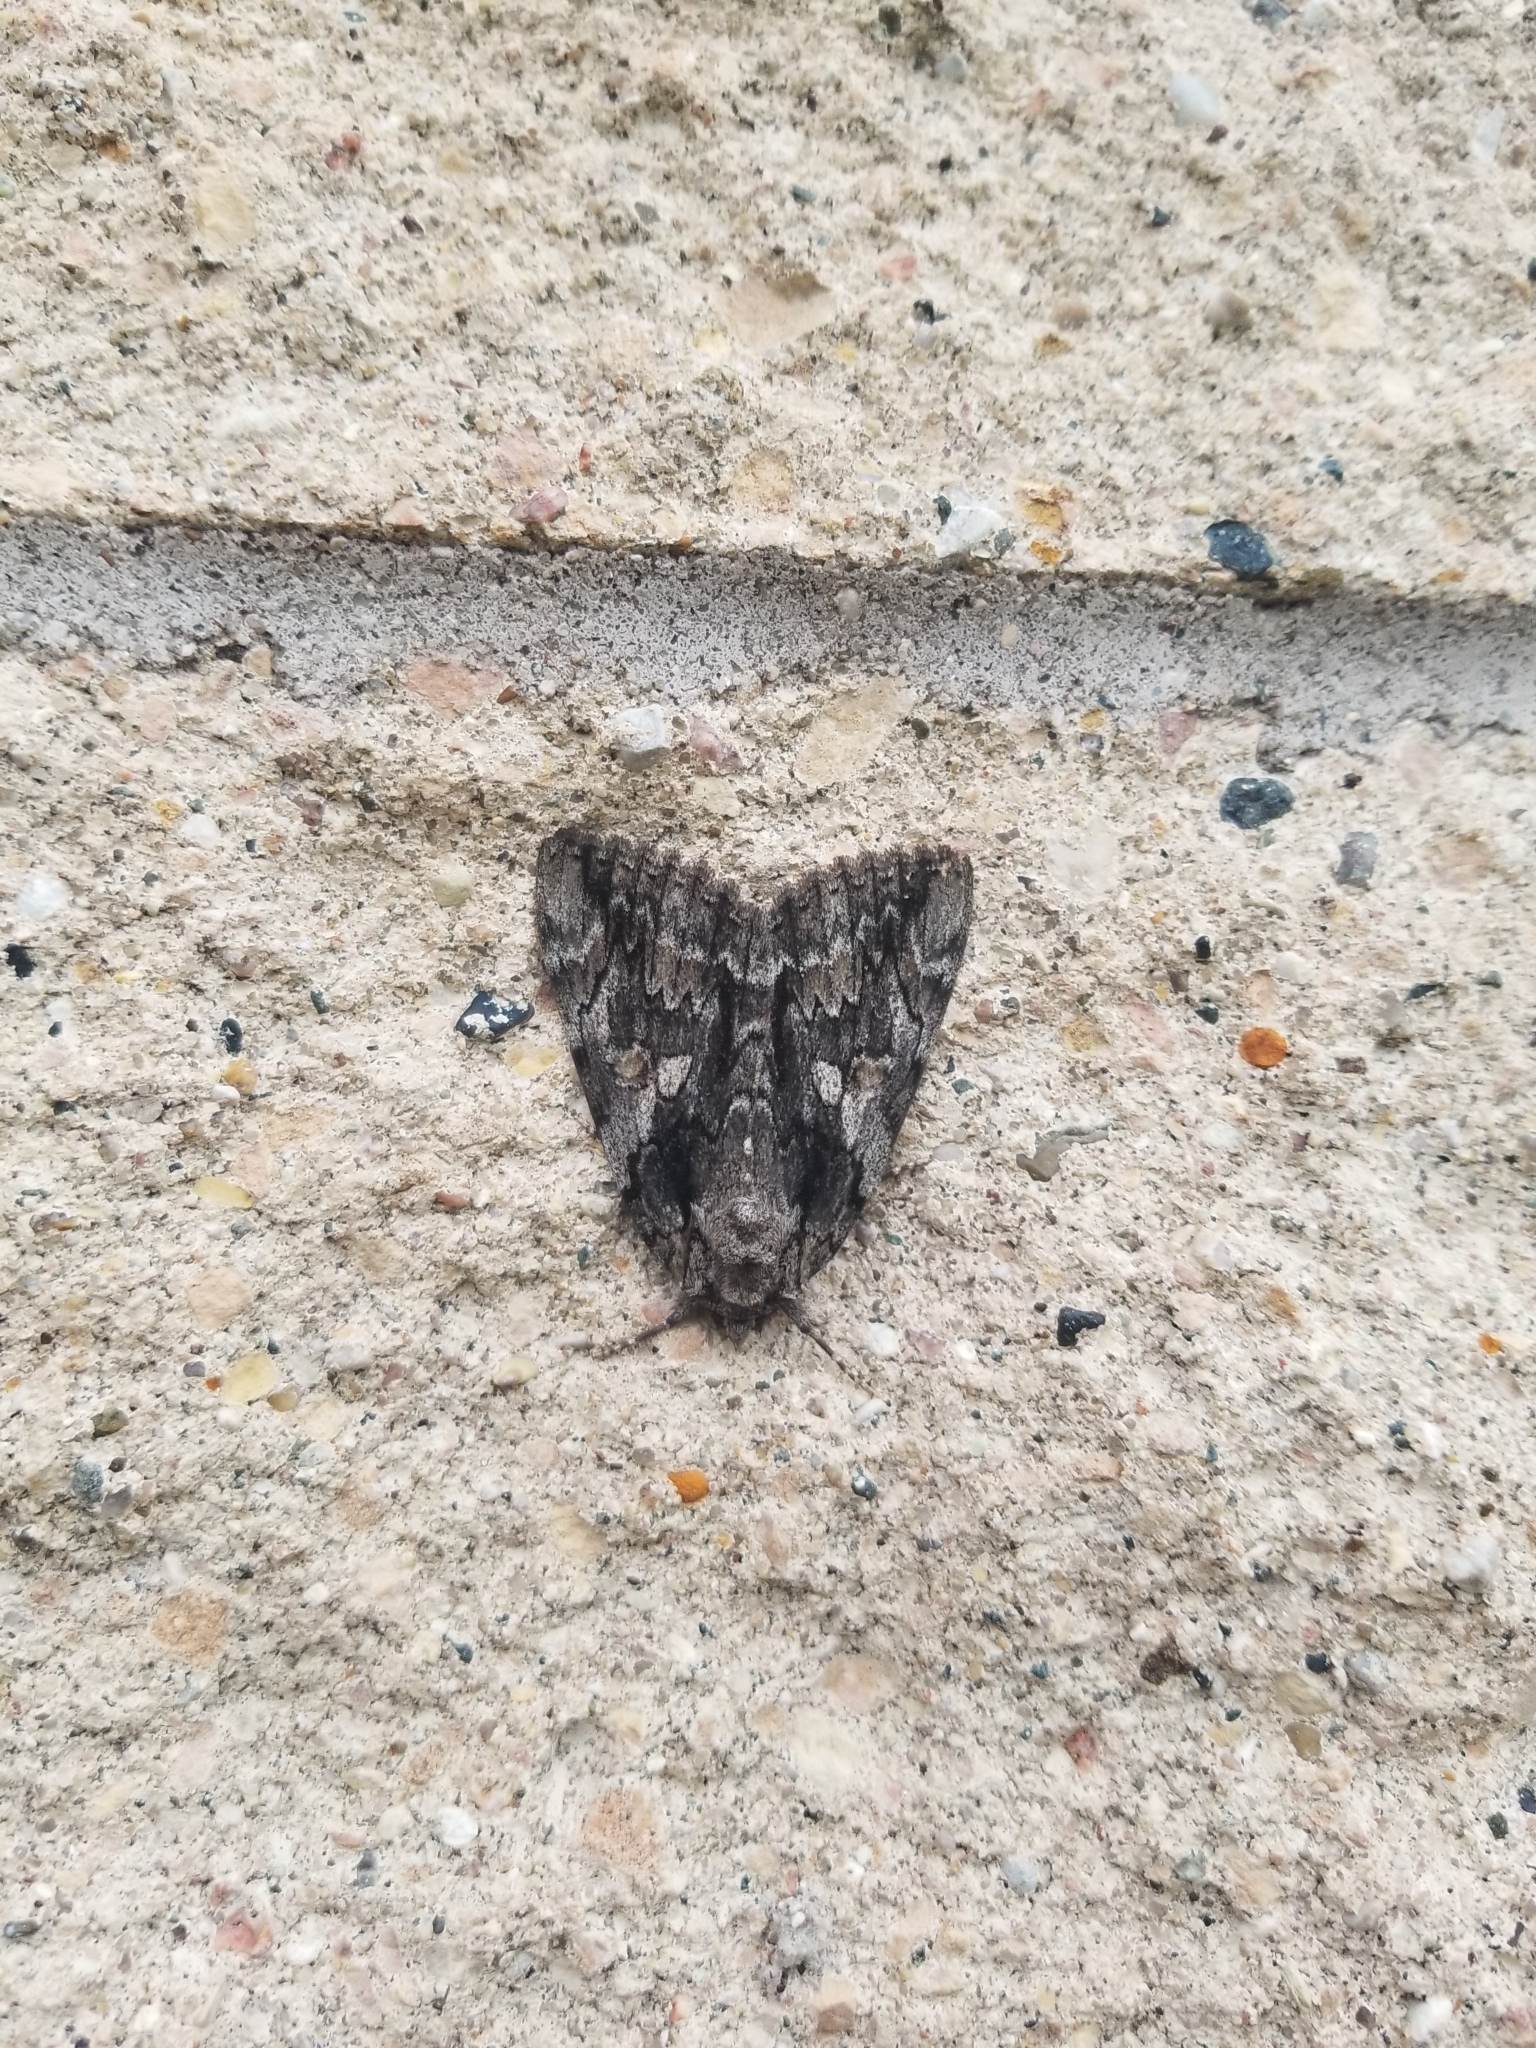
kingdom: Animalia
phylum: Arthropoda
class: Insecta
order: Lepidoptera
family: Erebidae
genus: Catocala
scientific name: Catocala neogama
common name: Bride underwing
